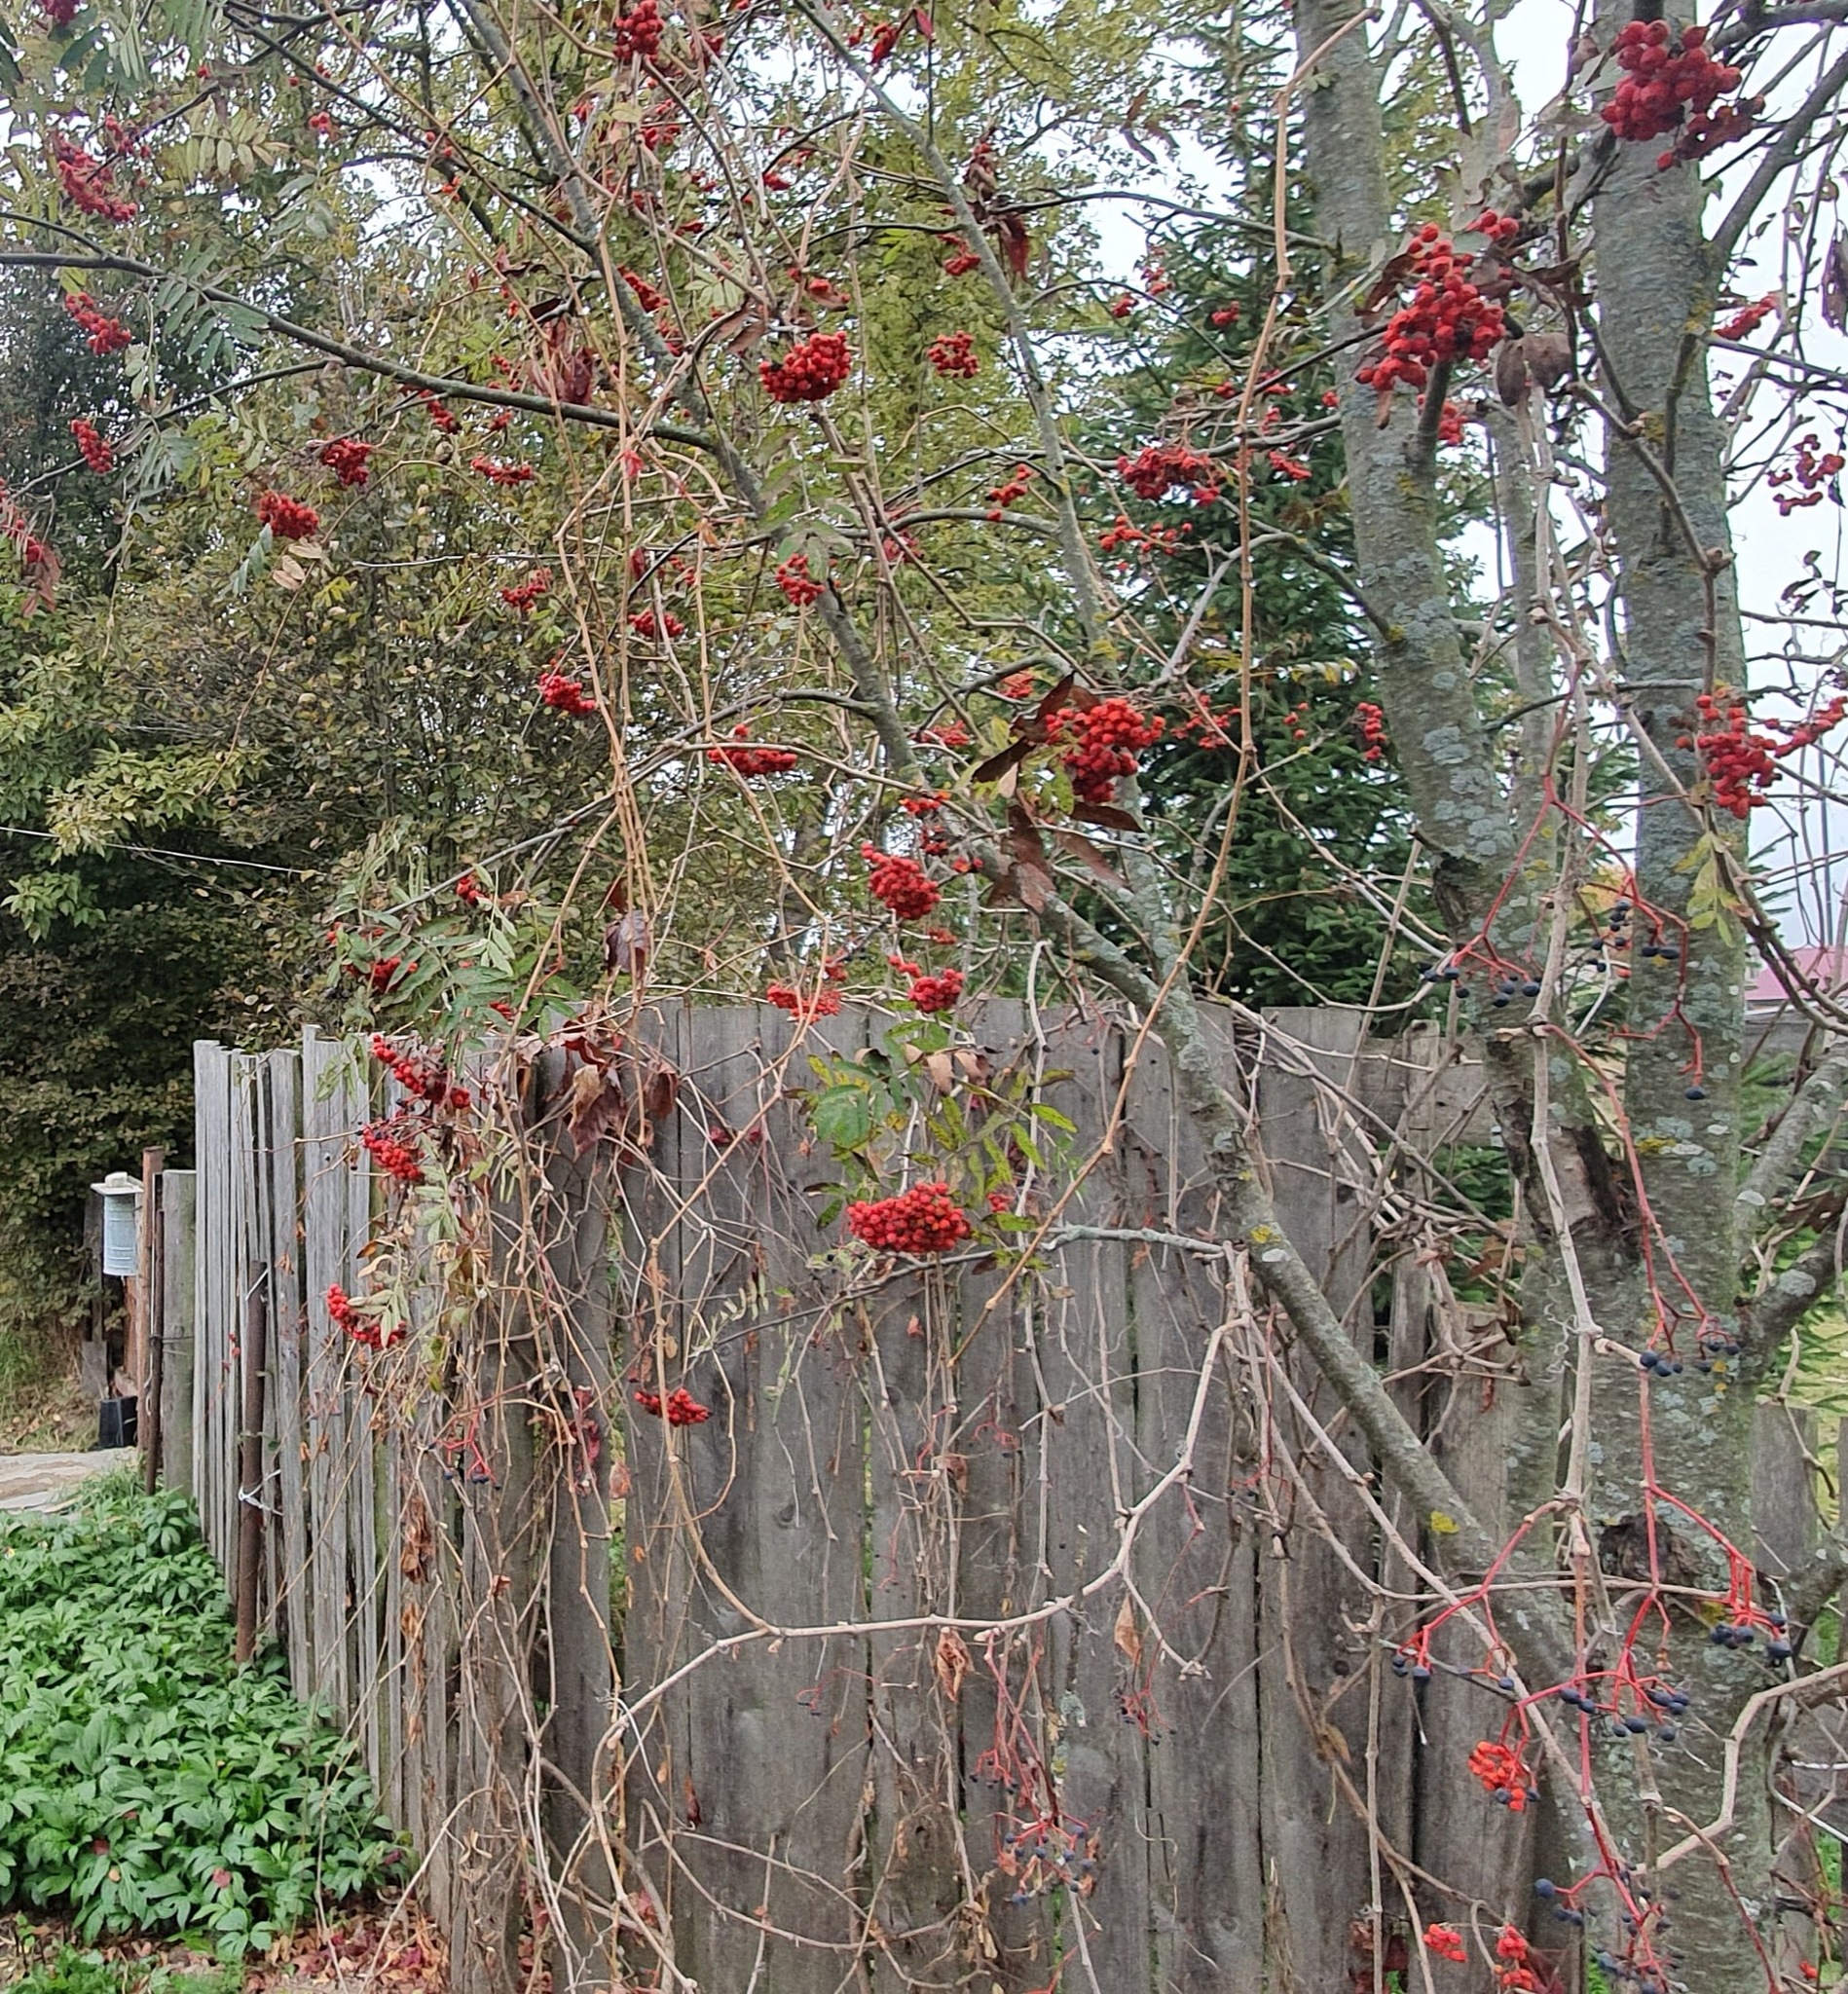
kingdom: Plantae
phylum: Tracheophyta
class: Magnoliopsida
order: Rosales
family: Rosaceae
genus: Sorbus
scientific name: Sorbus aucuparia
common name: Rowan
